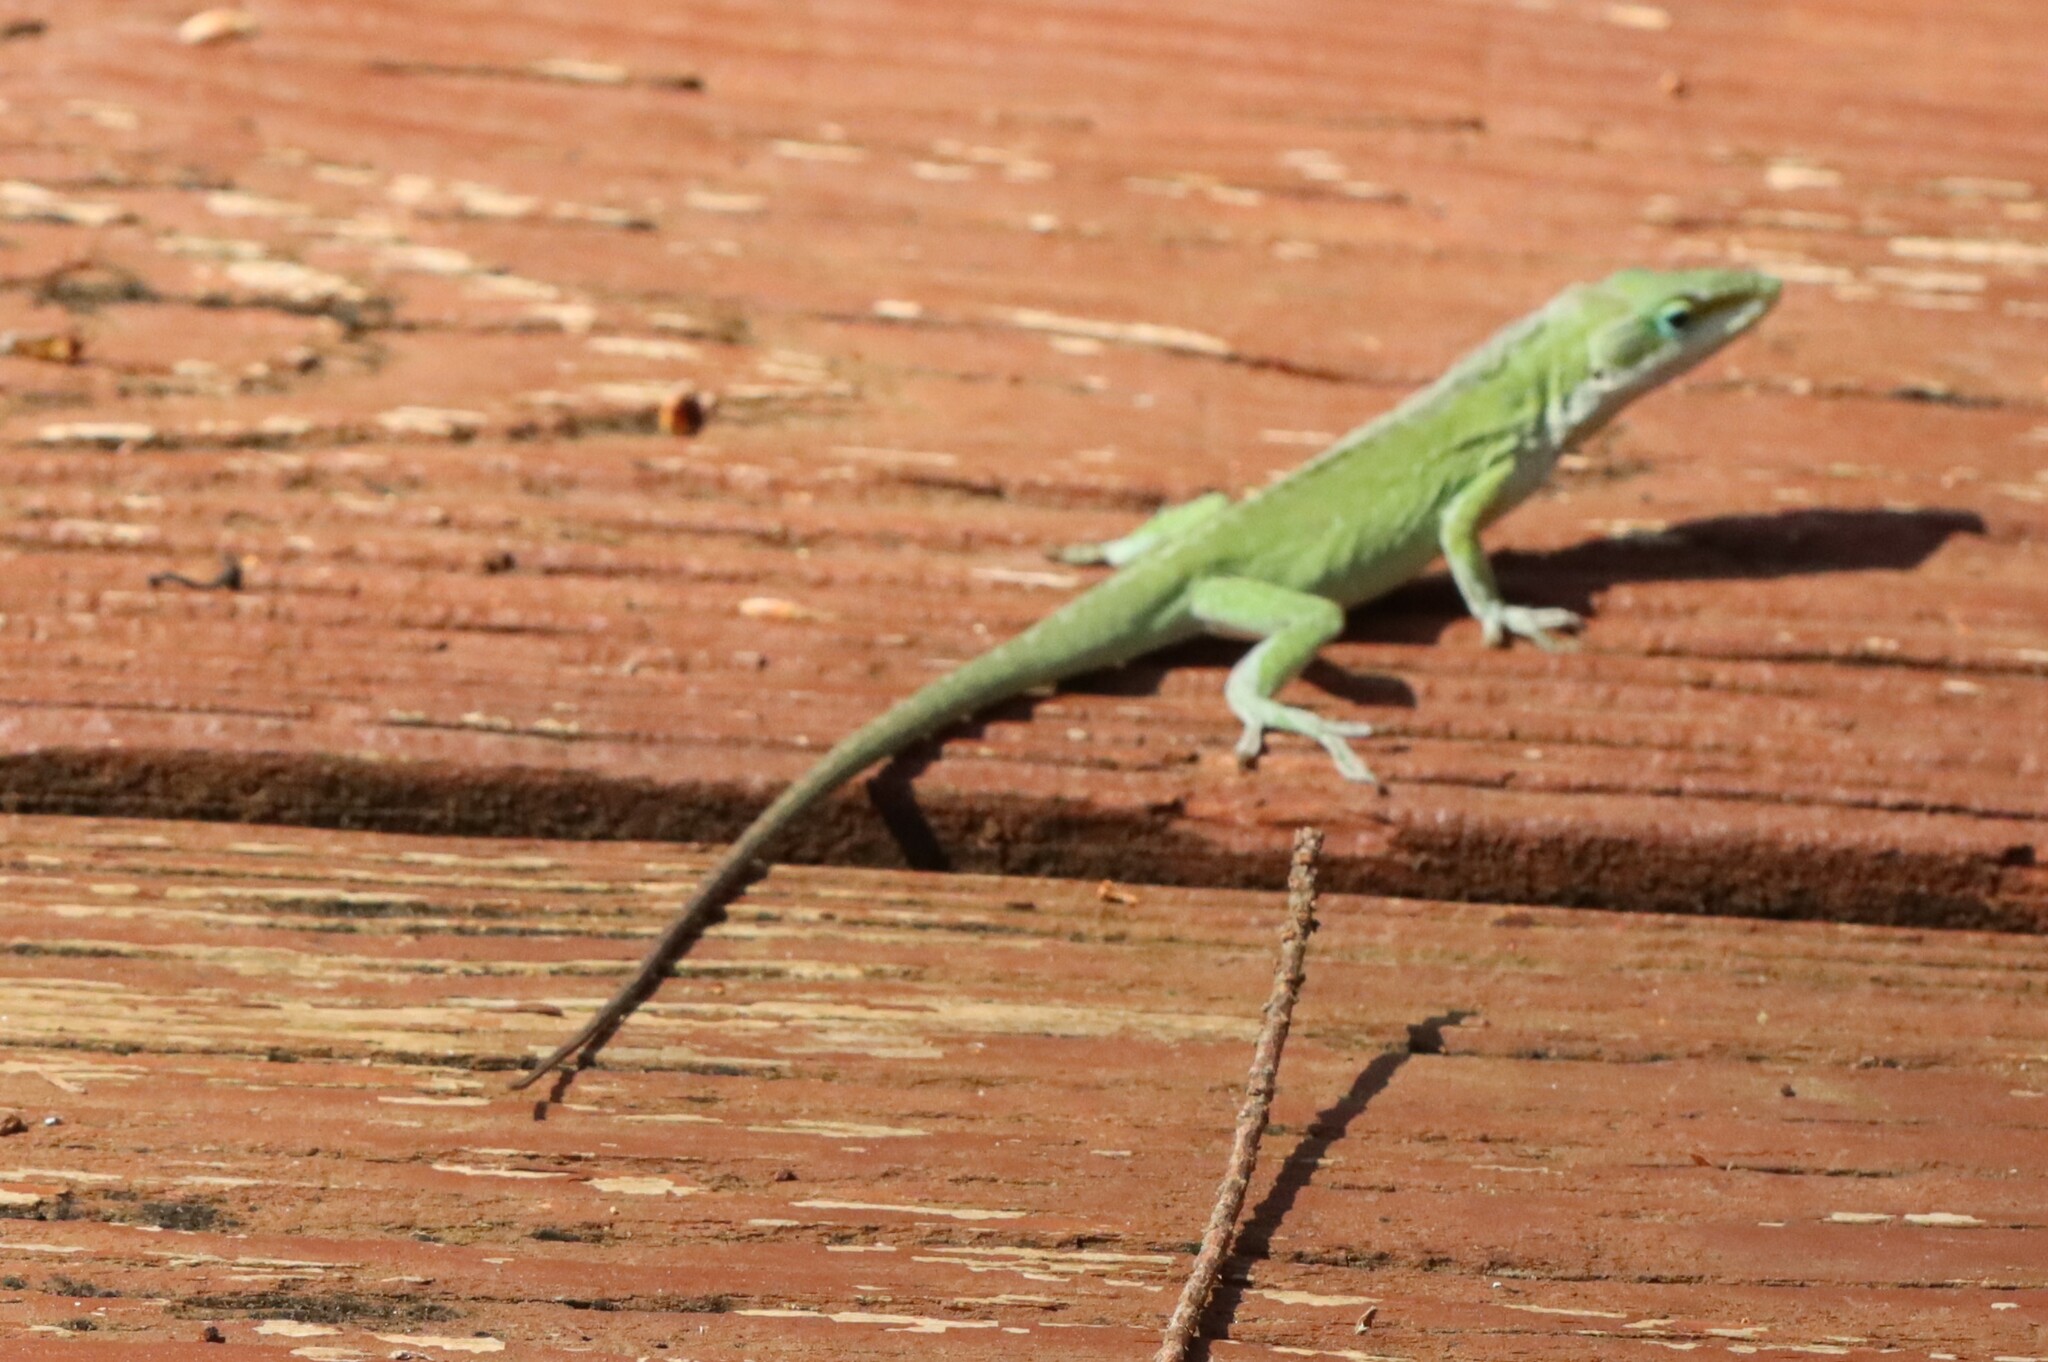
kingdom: Animalia
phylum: Chordata
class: Squamata
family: Dactyloidae
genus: Anolis
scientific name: Anolis carolinensis
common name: Green anole
